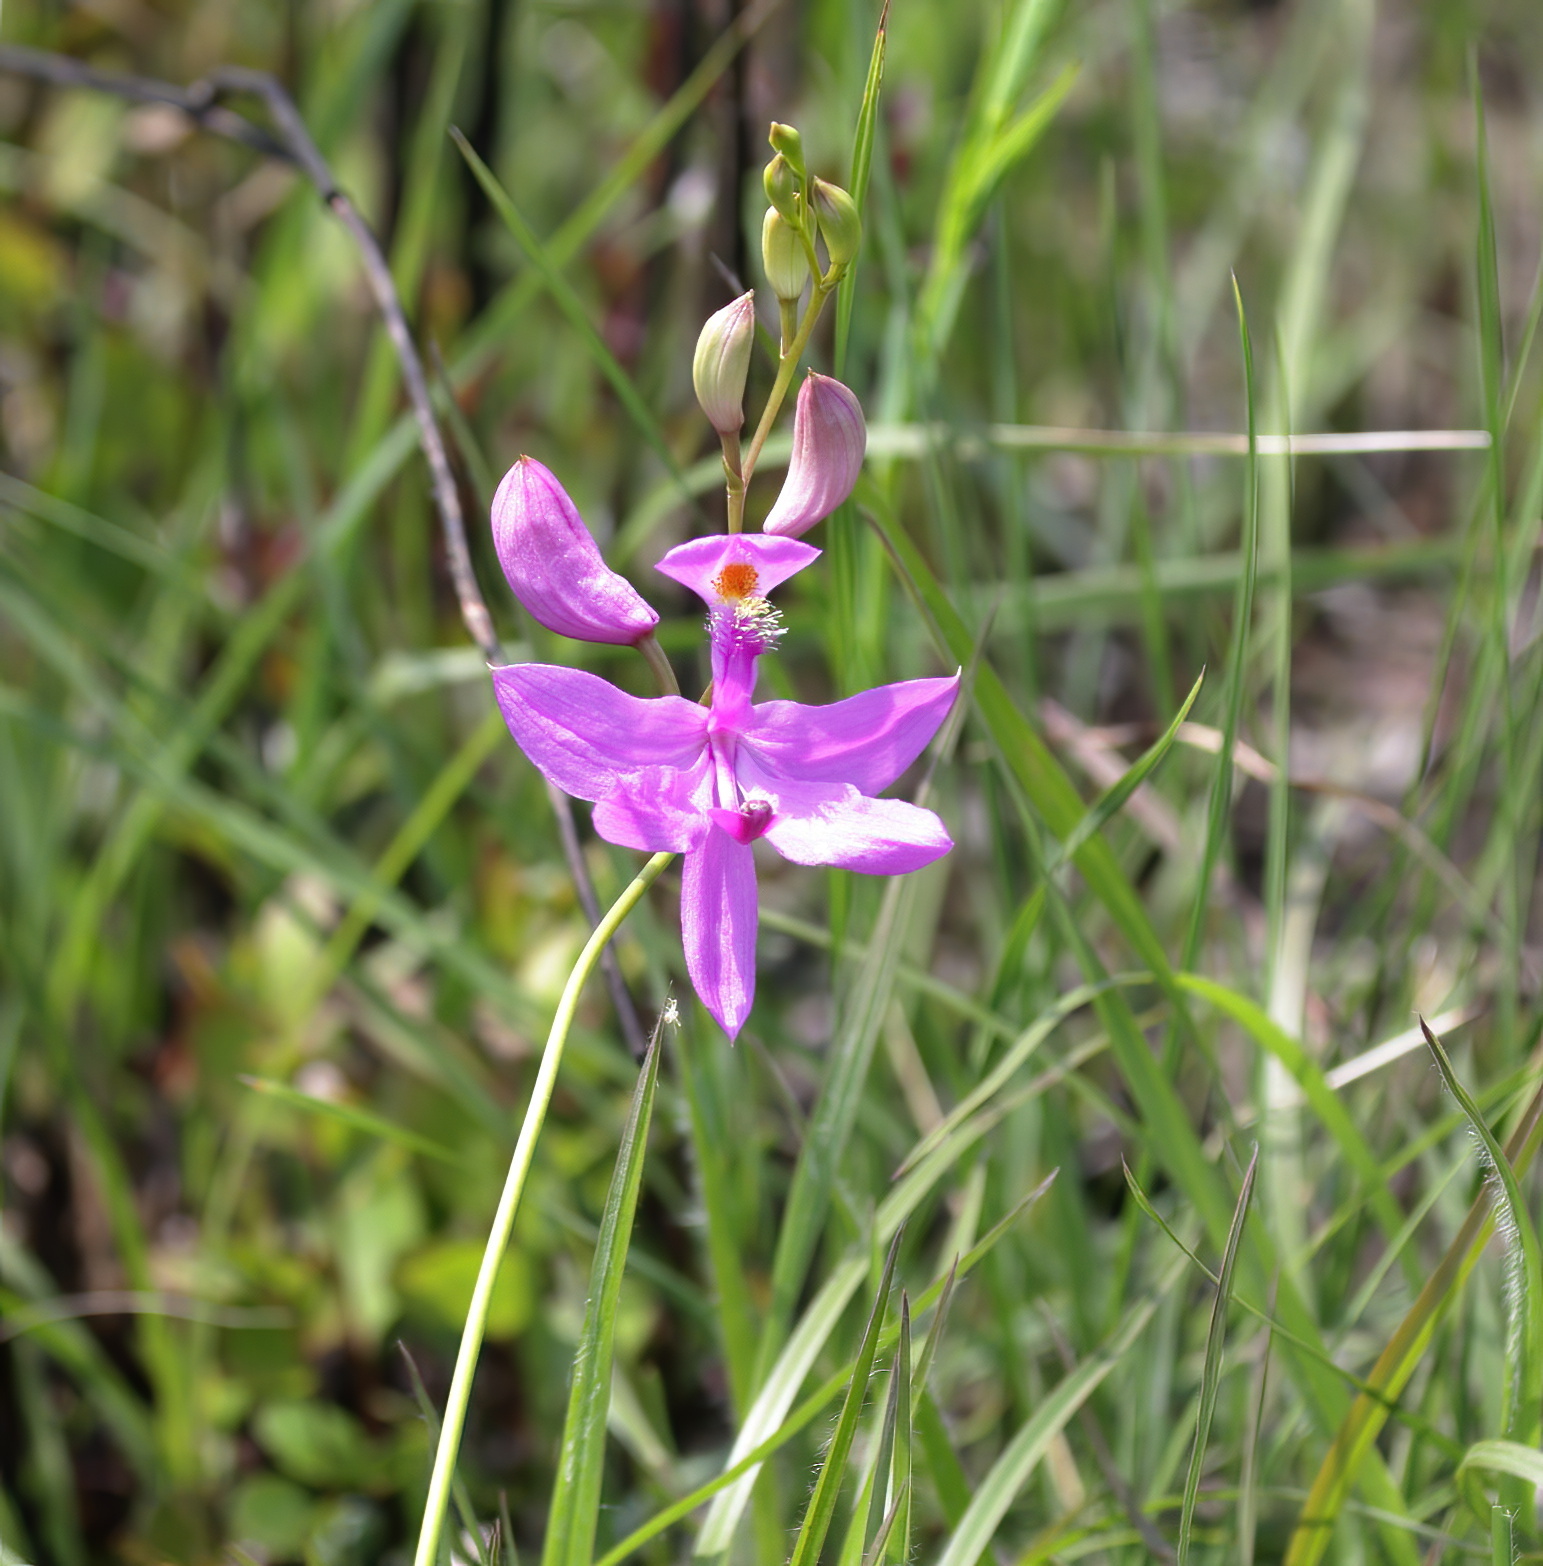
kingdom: Plantae
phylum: Tracheophyta
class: Liliopsida
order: Asparagales
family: Orchidaceae
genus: Calopogon
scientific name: Calopogon tuberosus
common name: Grass-pink
